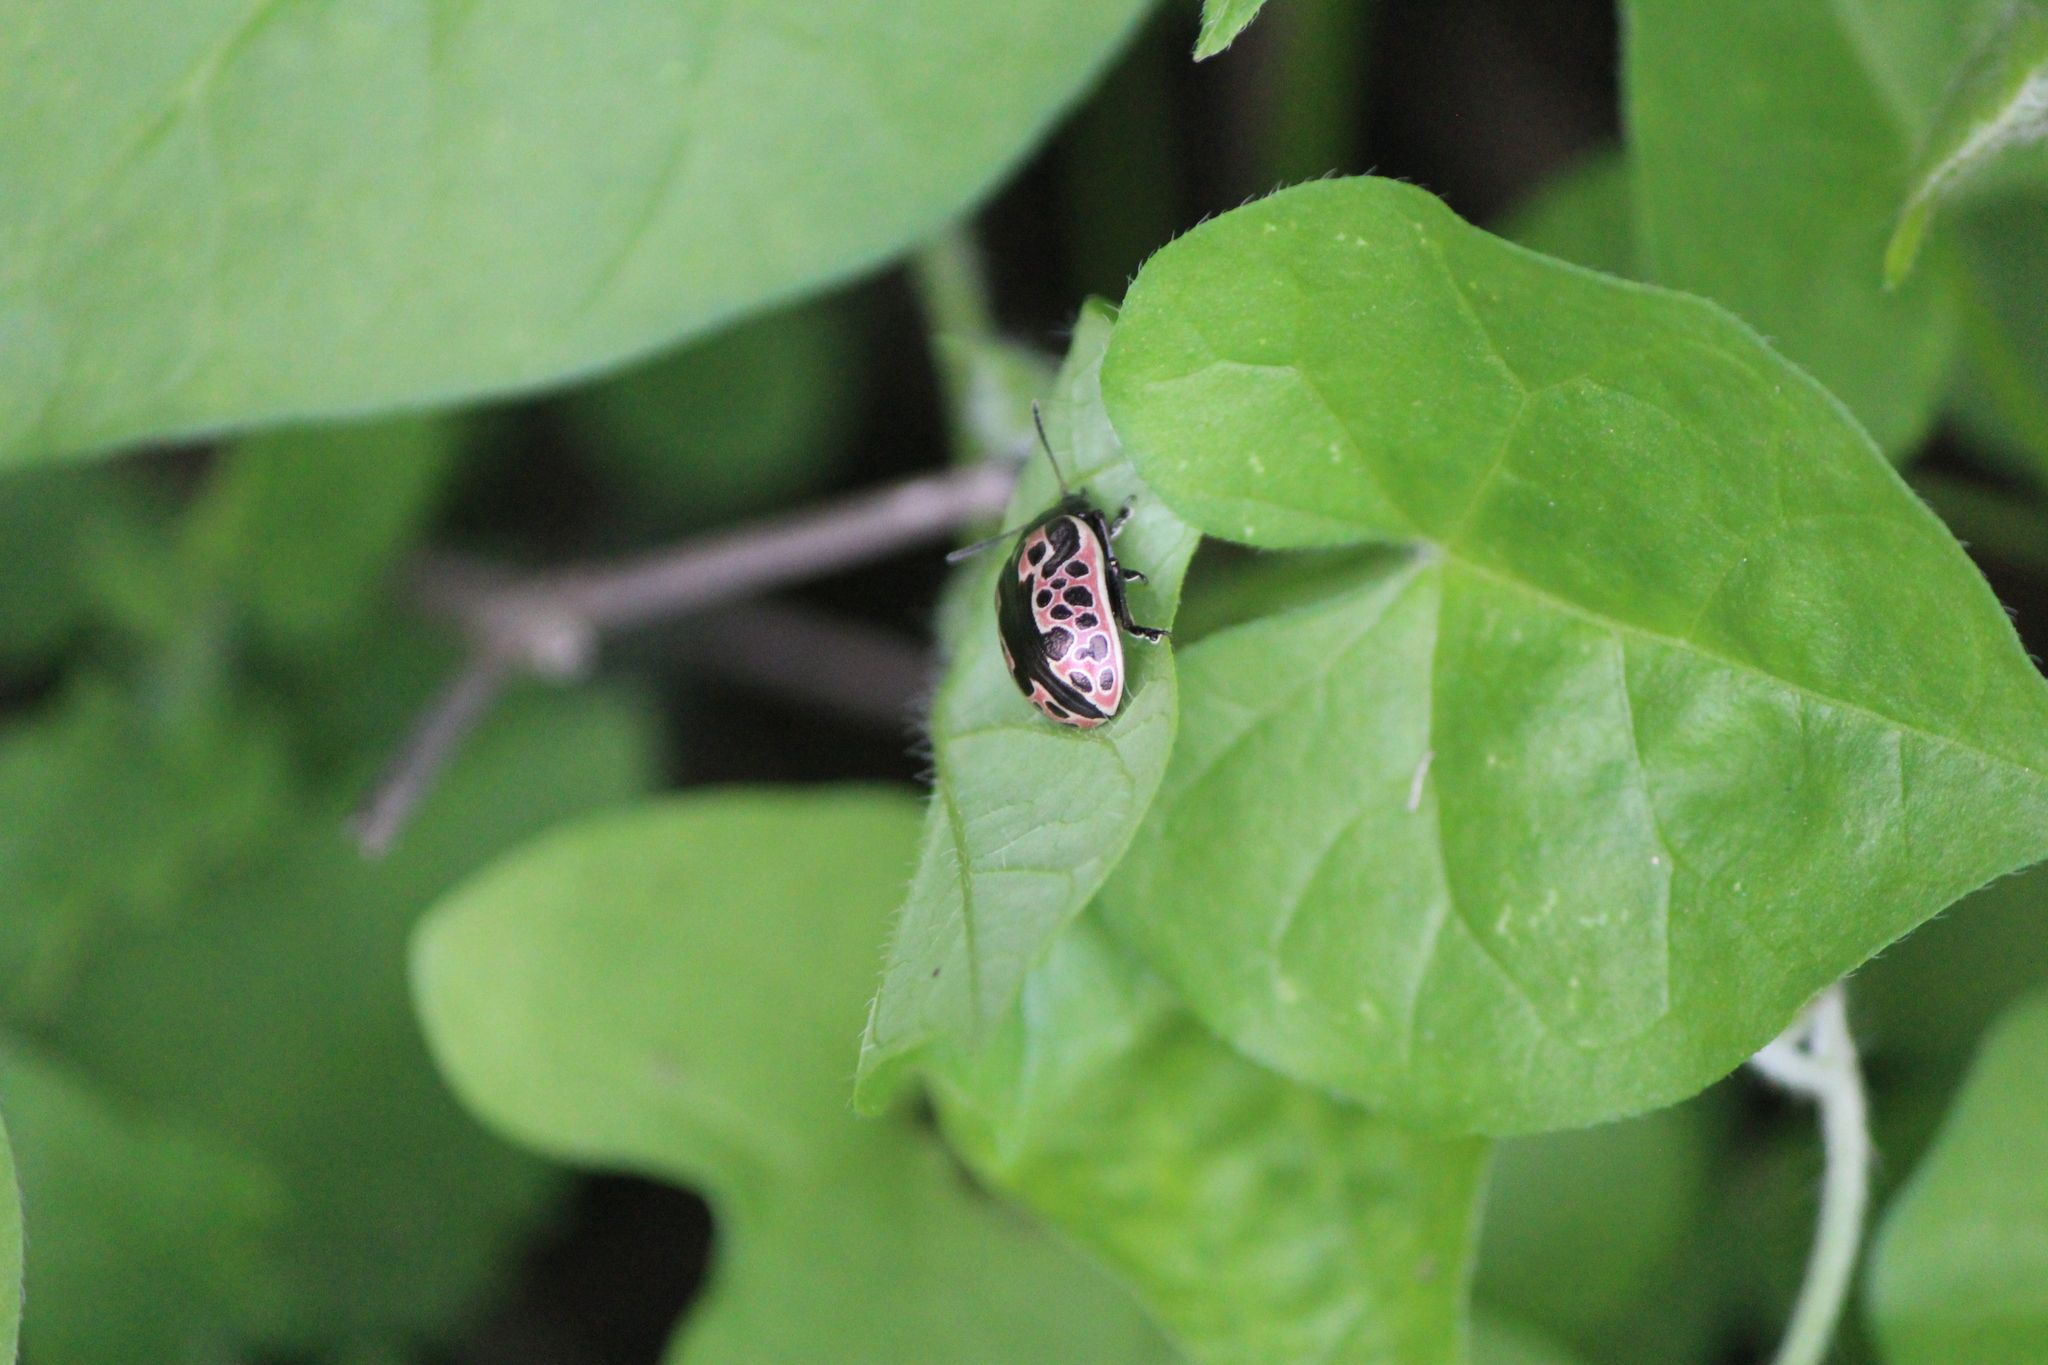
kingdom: Animalia
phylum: Arthropoda
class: Insecta
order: Coleoptera
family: Chrysomelidae
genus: Calligrapha
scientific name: Calligrapha diversa
